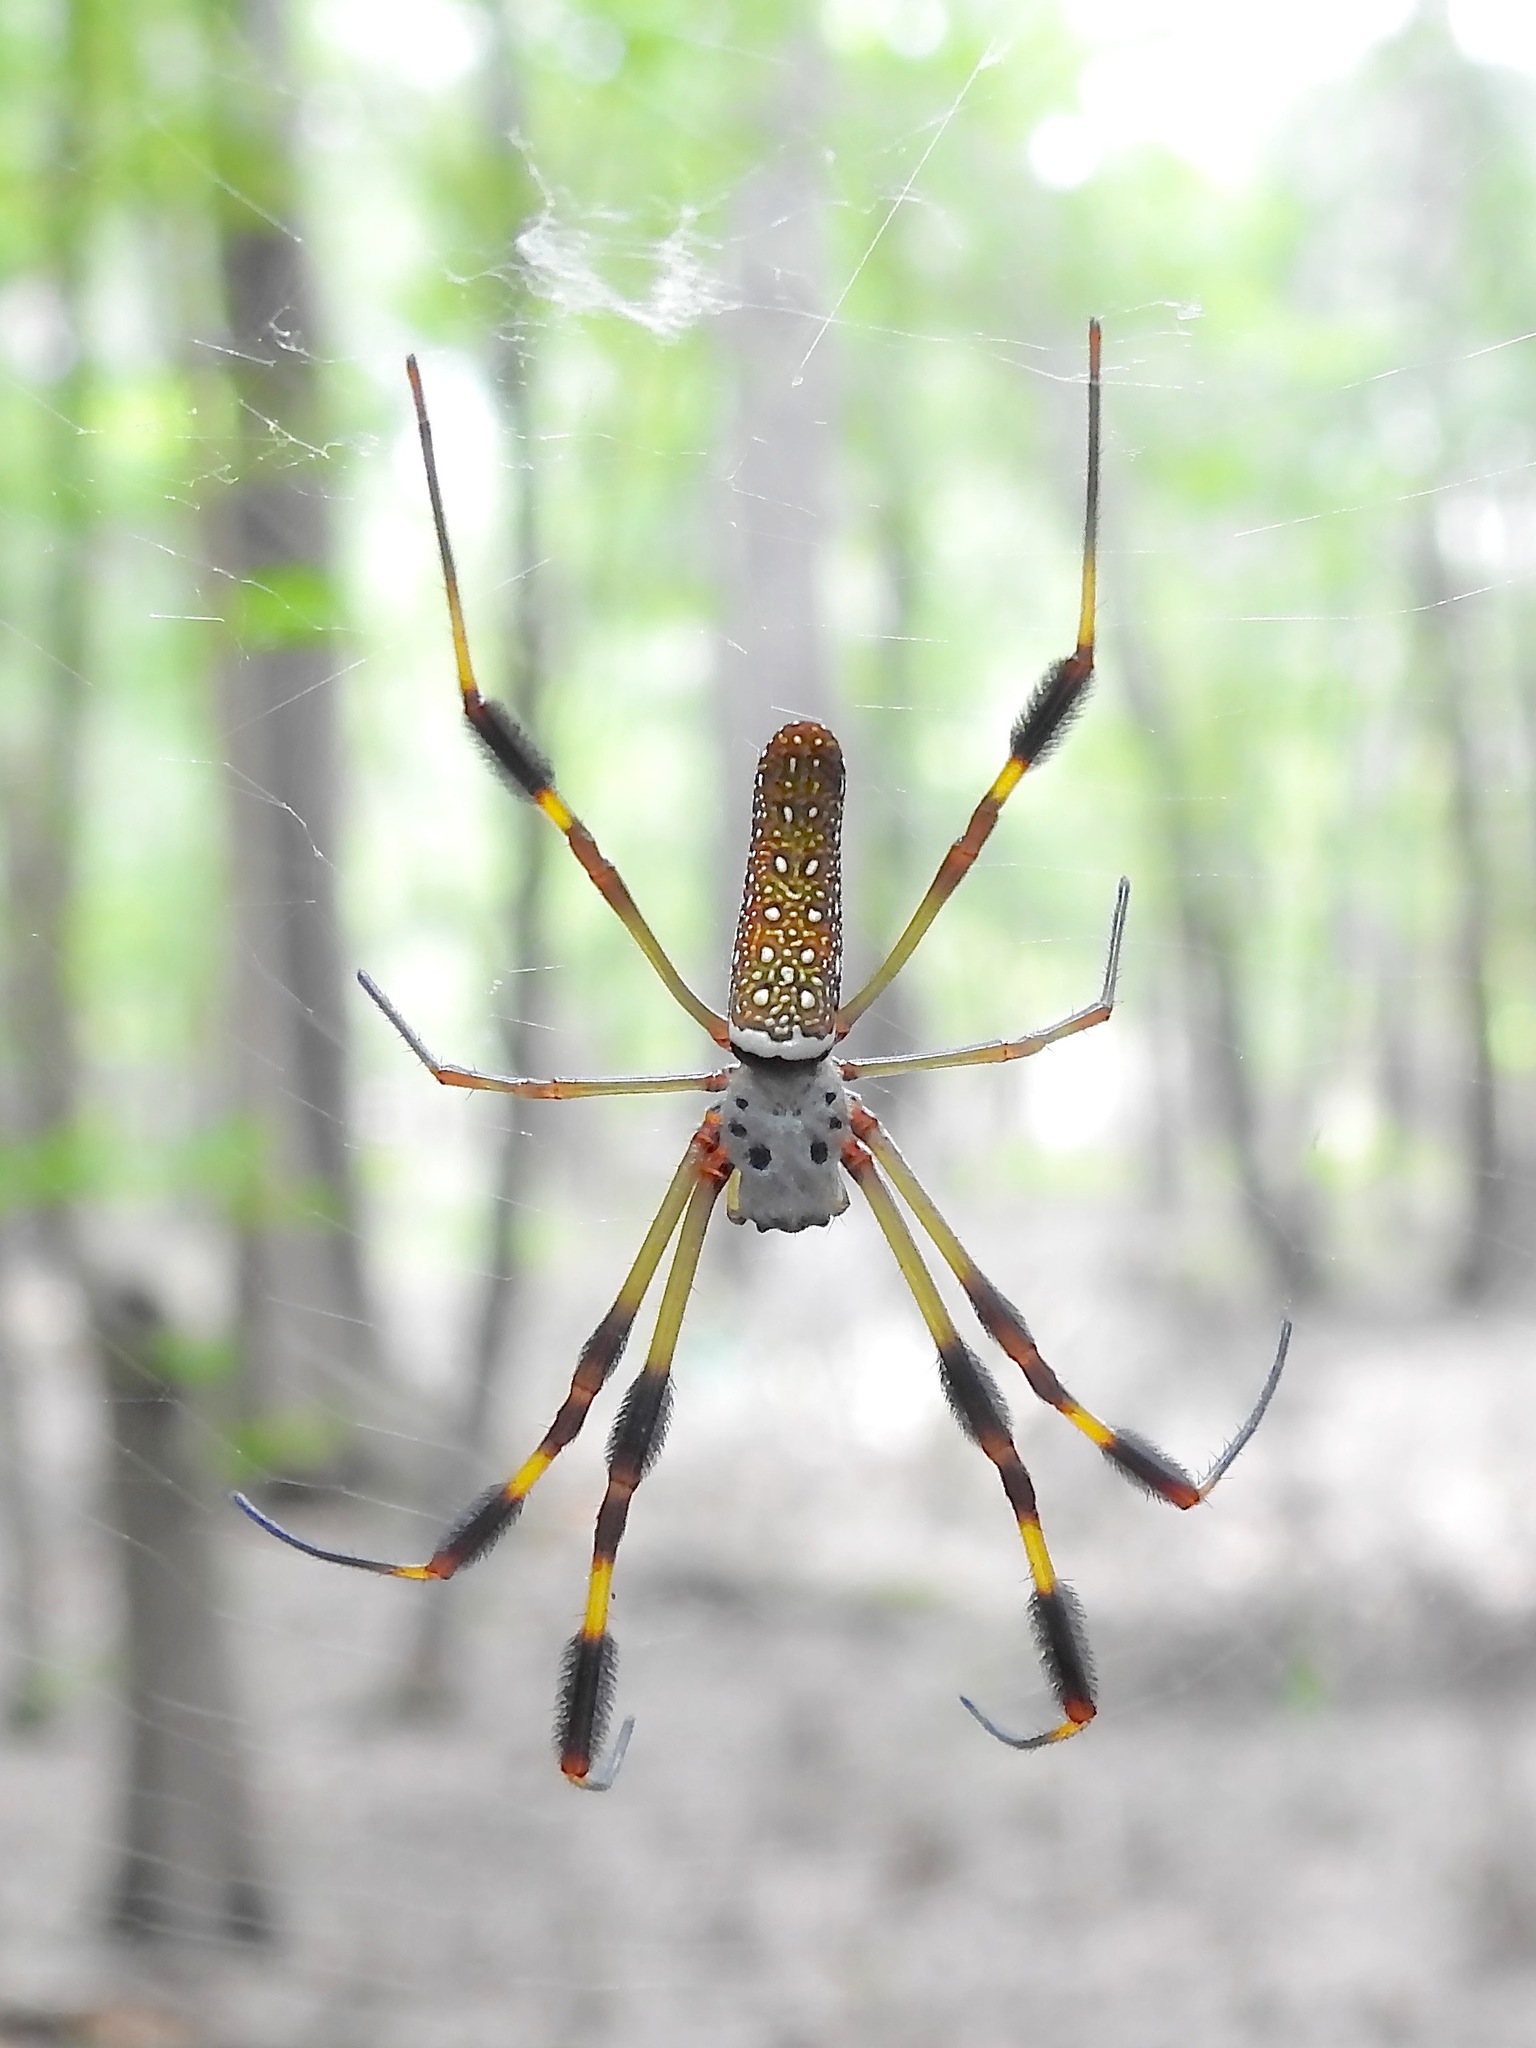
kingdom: Animalia
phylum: Arthropoda
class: Arachnida
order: Araneae
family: Araneidae
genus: Trichonephila
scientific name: Trichonephila clavipes
